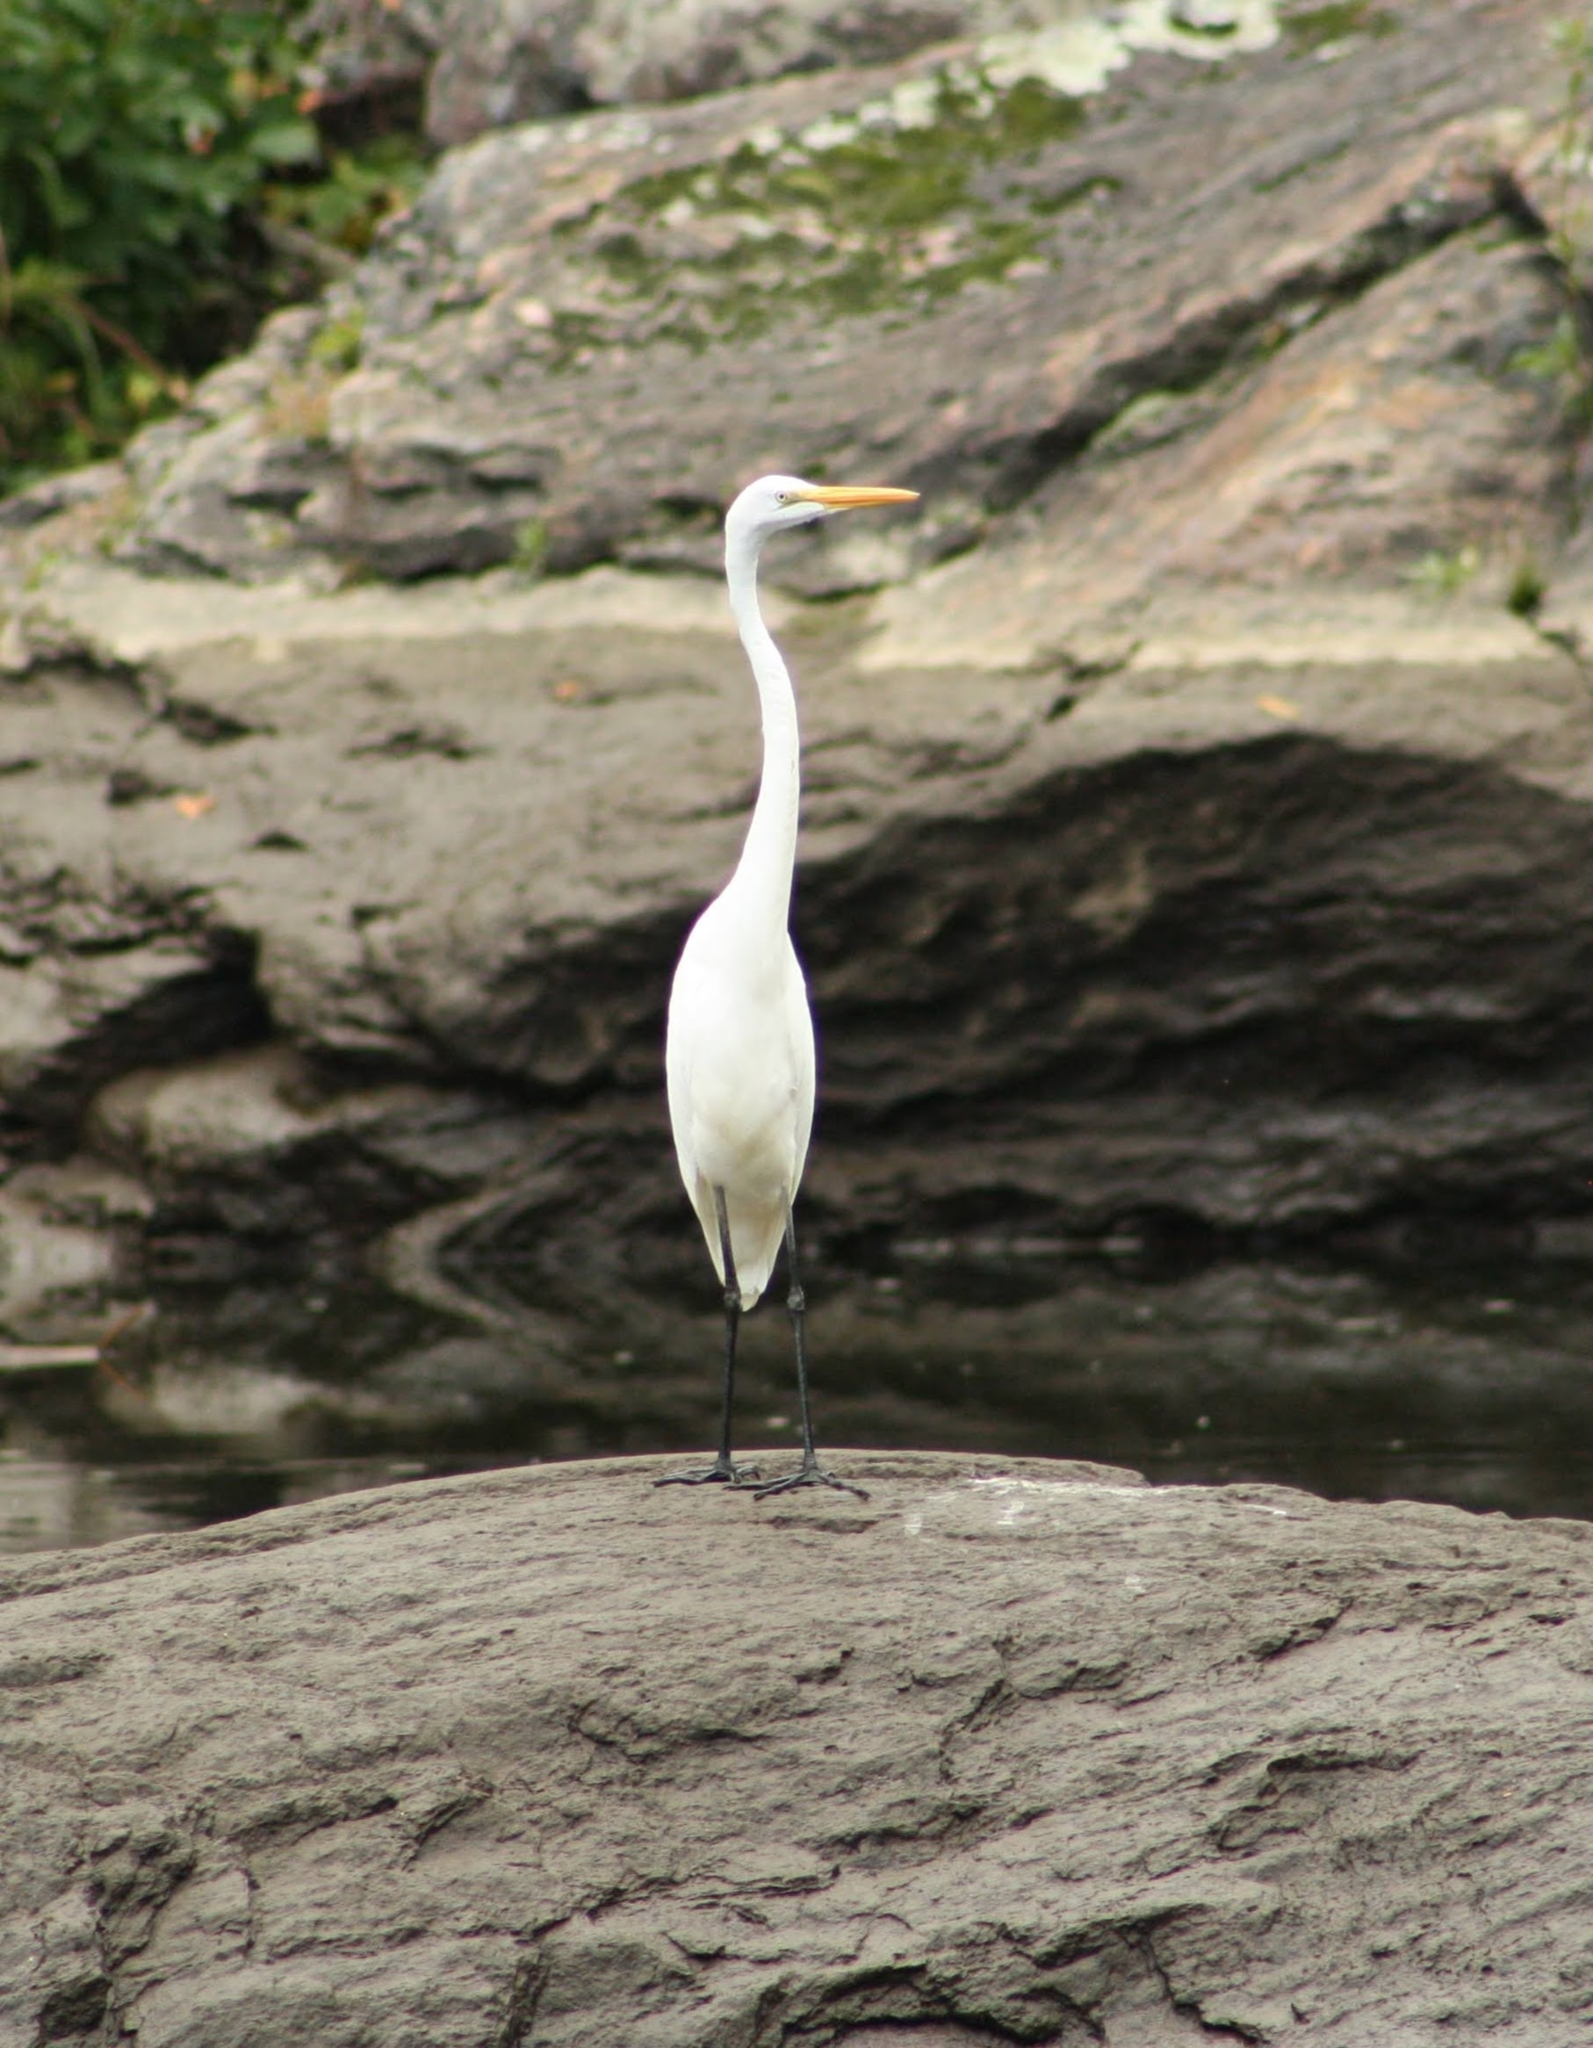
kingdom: Animalia
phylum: Chordata
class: Aves
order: Pelecaniformes
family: Ardeidae
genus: Ardea
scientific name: Ardea alba
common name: Great egret
